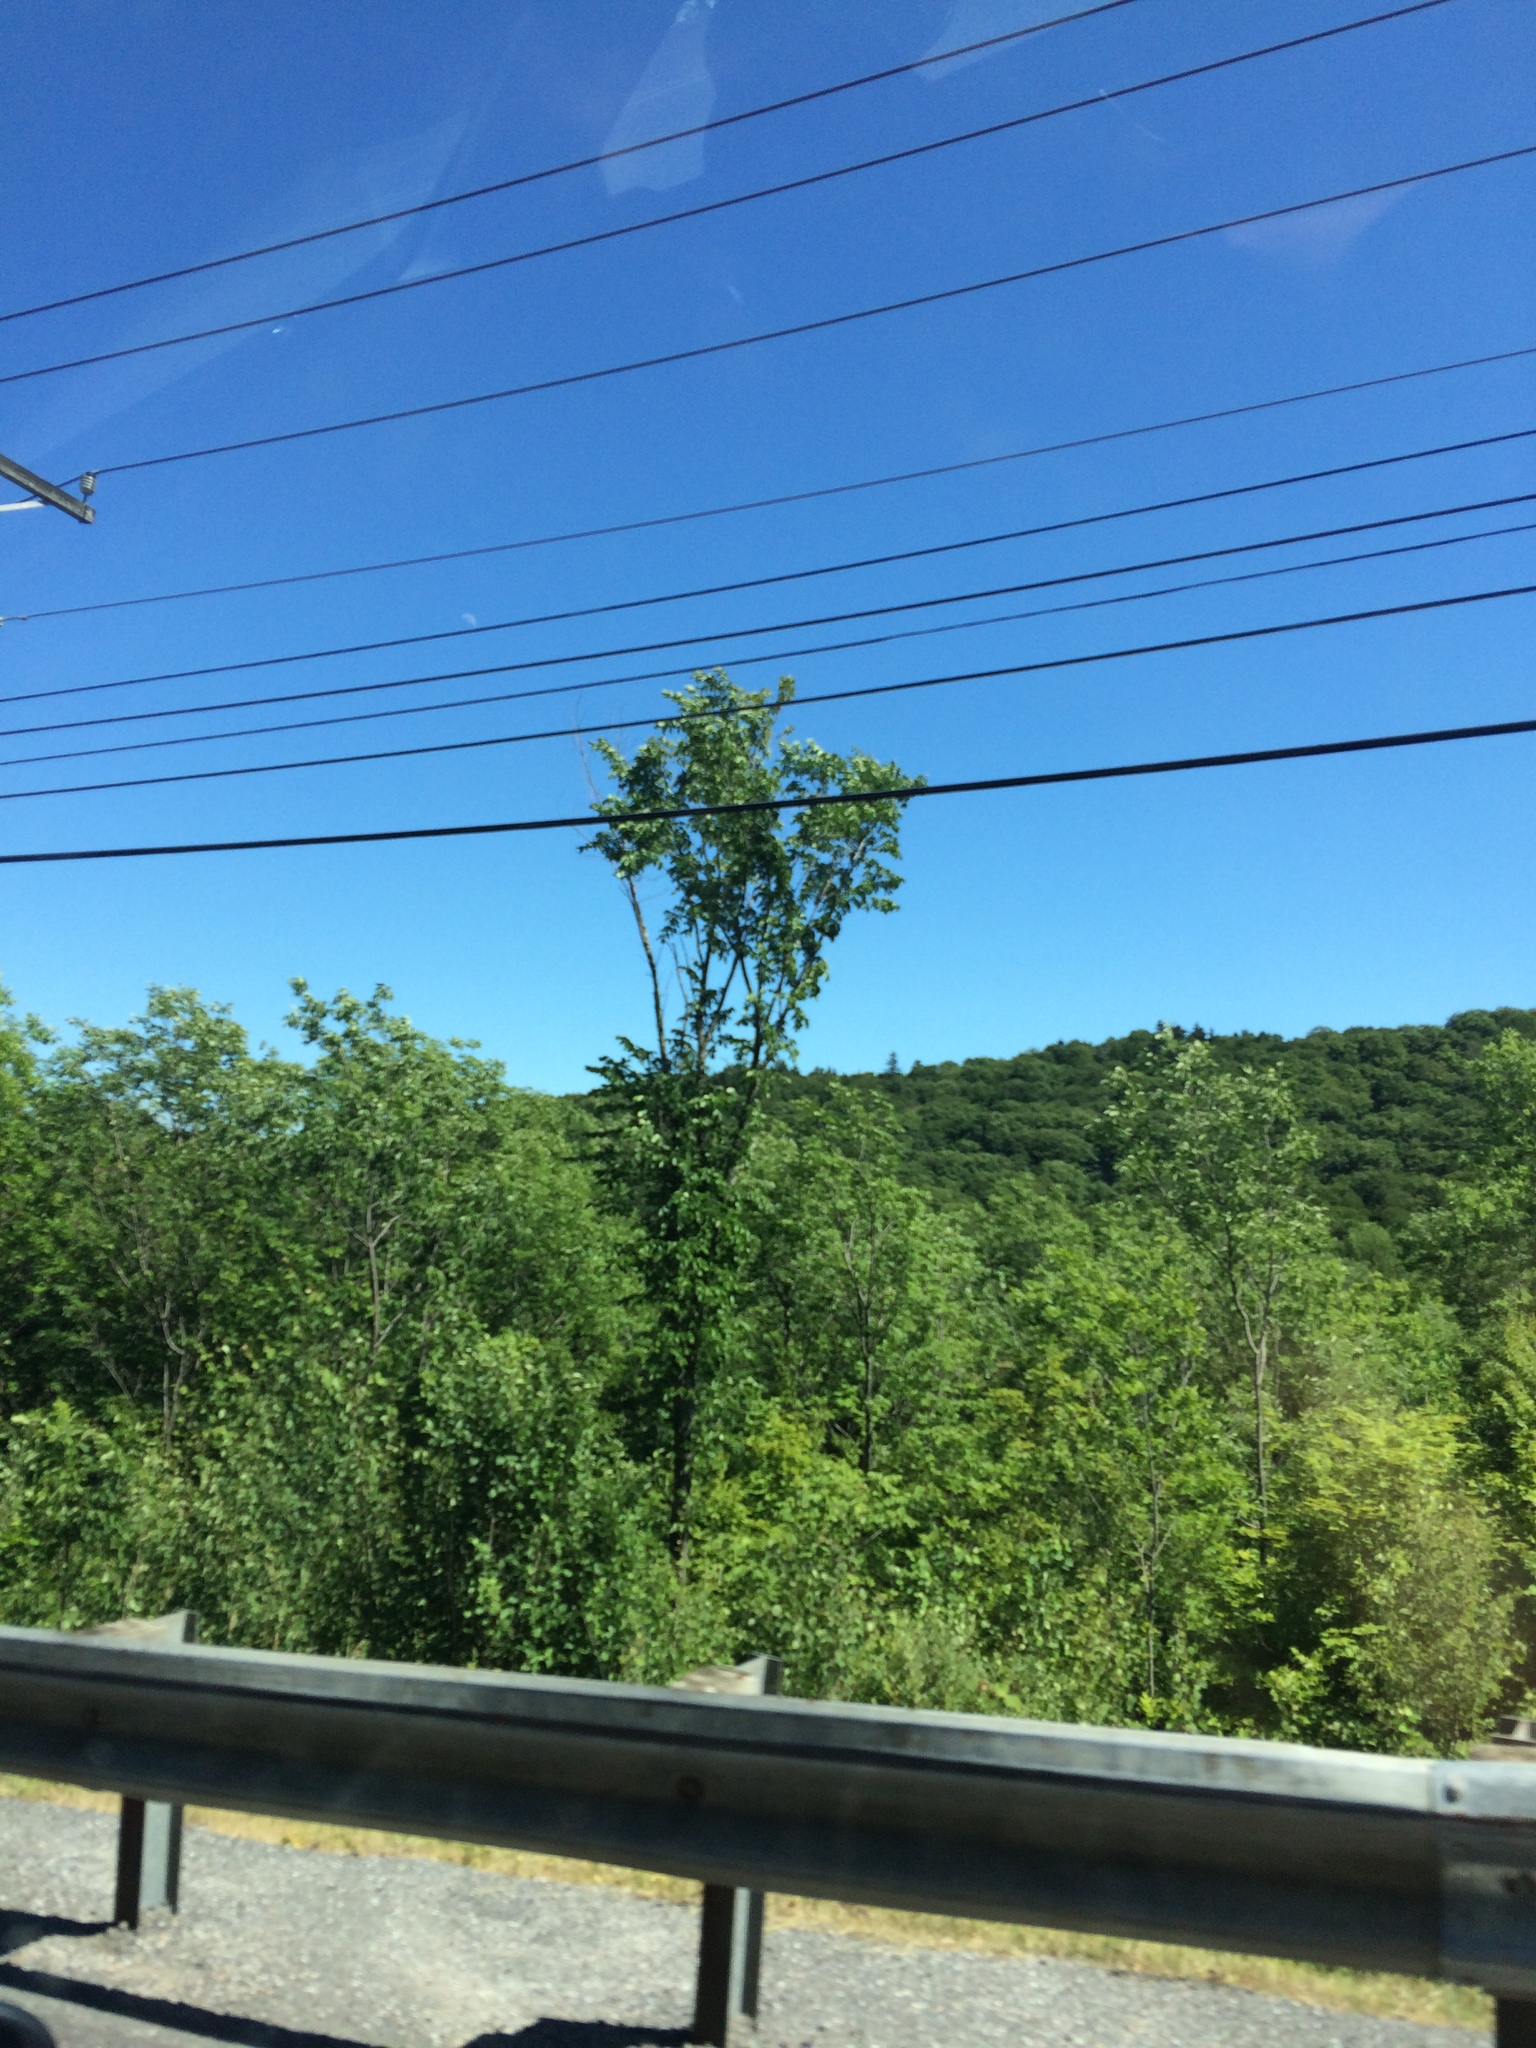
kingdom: Plantae
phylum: Tracheophyta
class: Magnoliopsida
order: Rosales
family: Ulmaceae
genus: Ulmus
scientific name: Ulmus americana
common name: American elm
